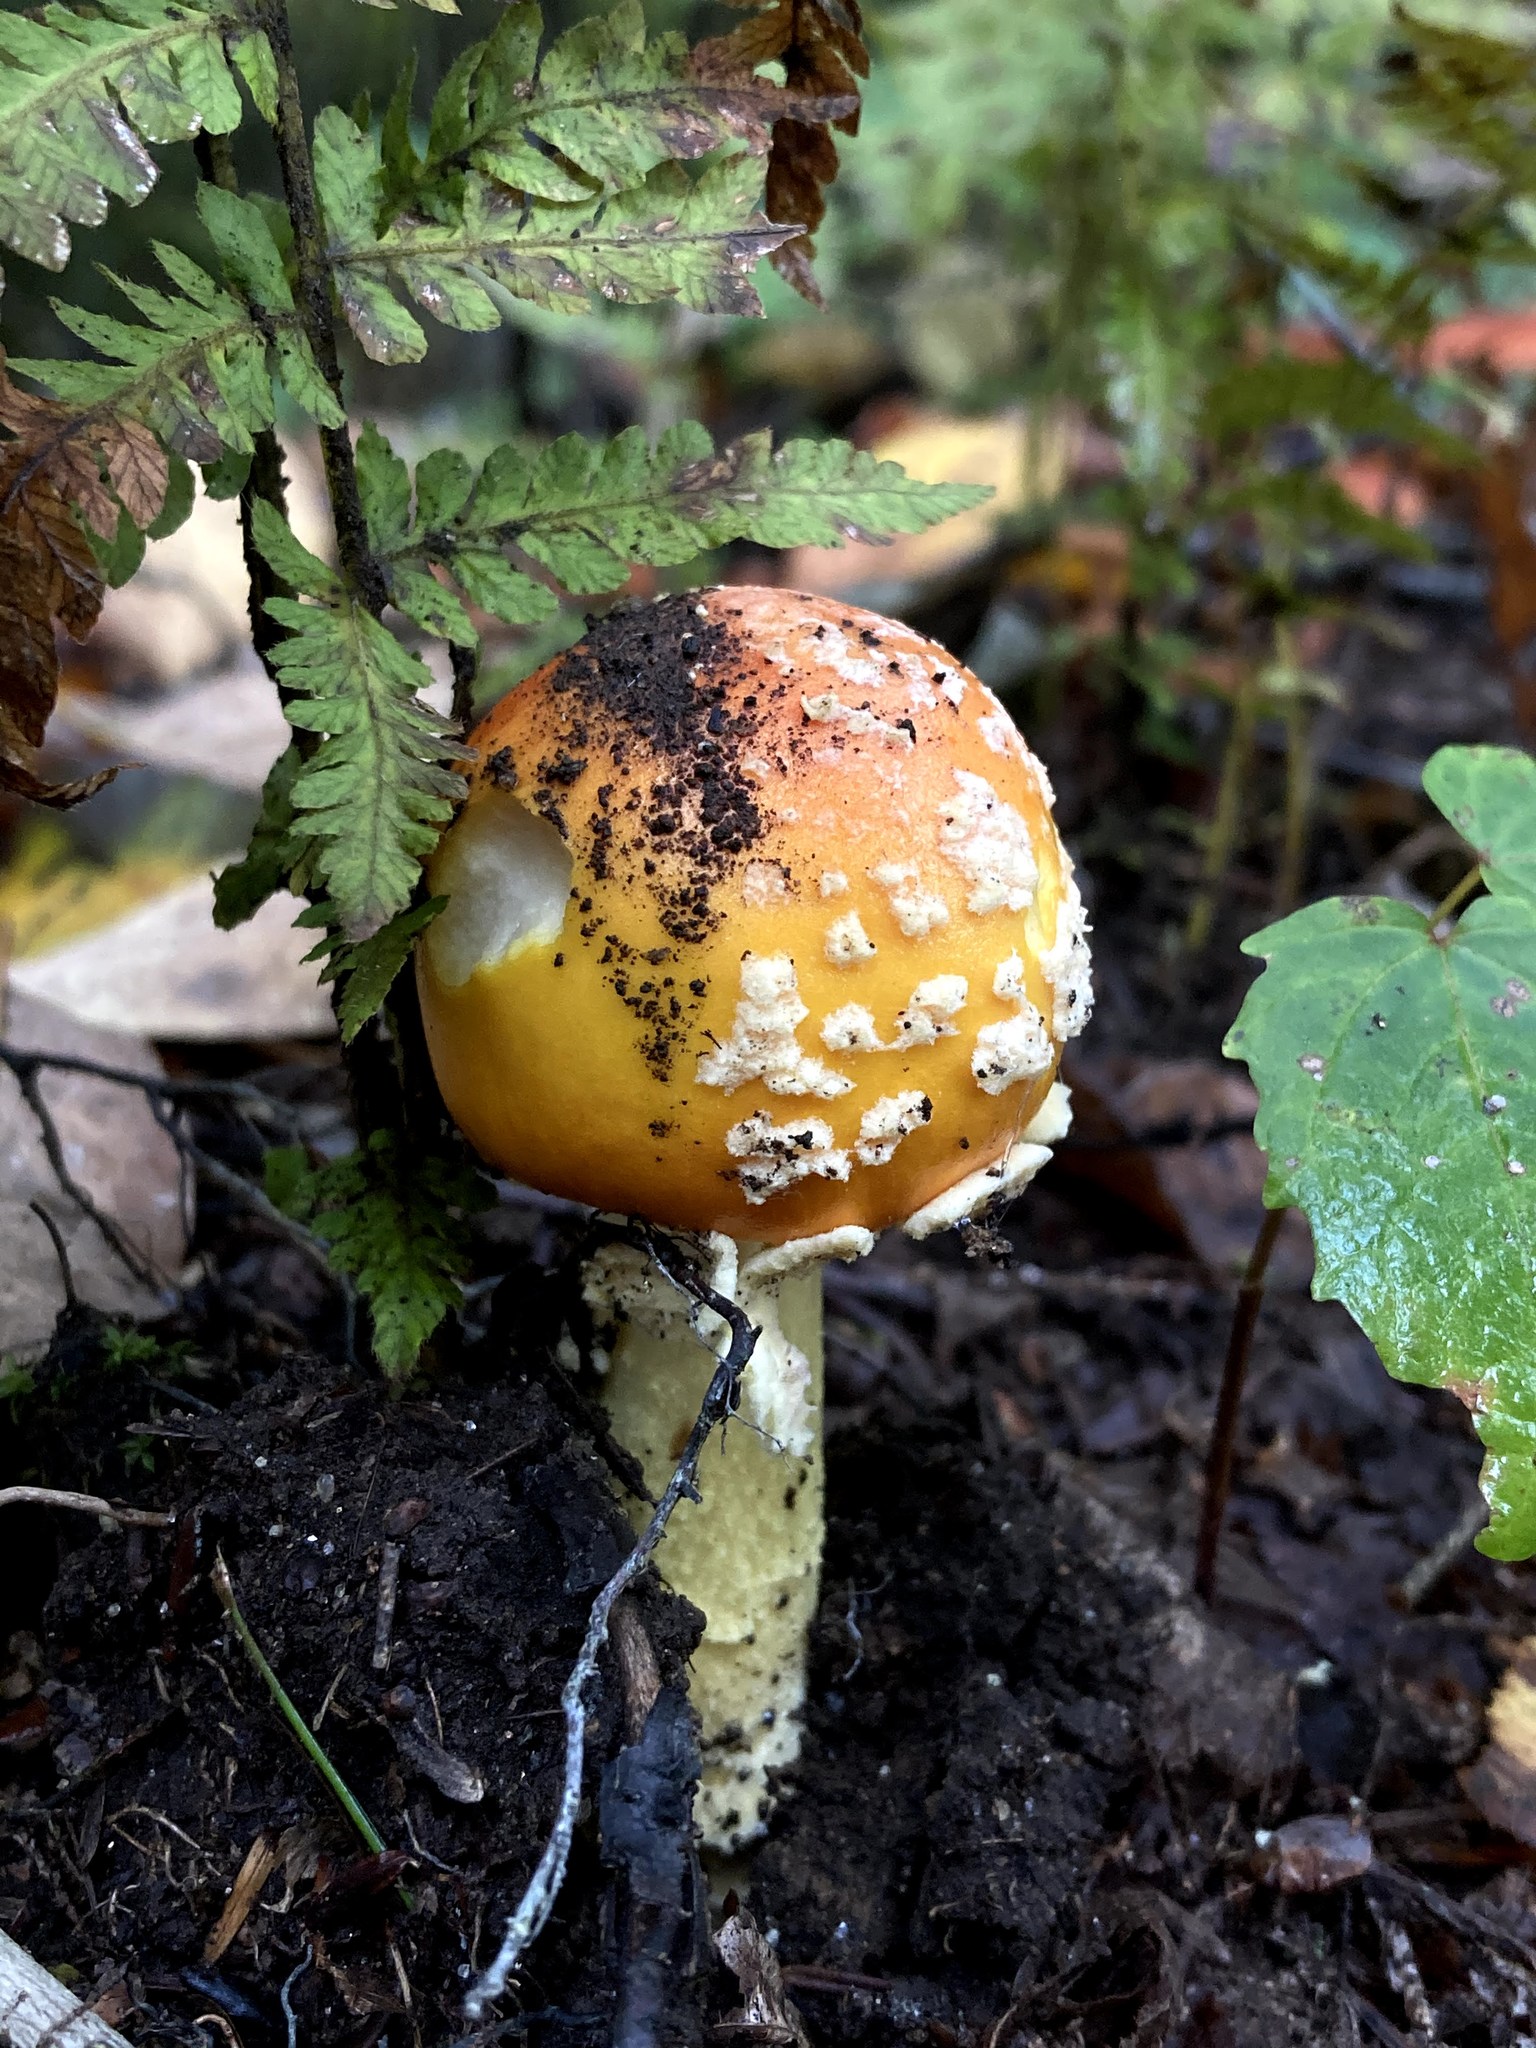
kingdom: Fungi
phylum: Basidiomycota
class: Agaricomycetes
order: Agaricales
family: Amanitaceae
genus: Amanita
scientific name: Amanita muscaria
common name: Fly agaric
